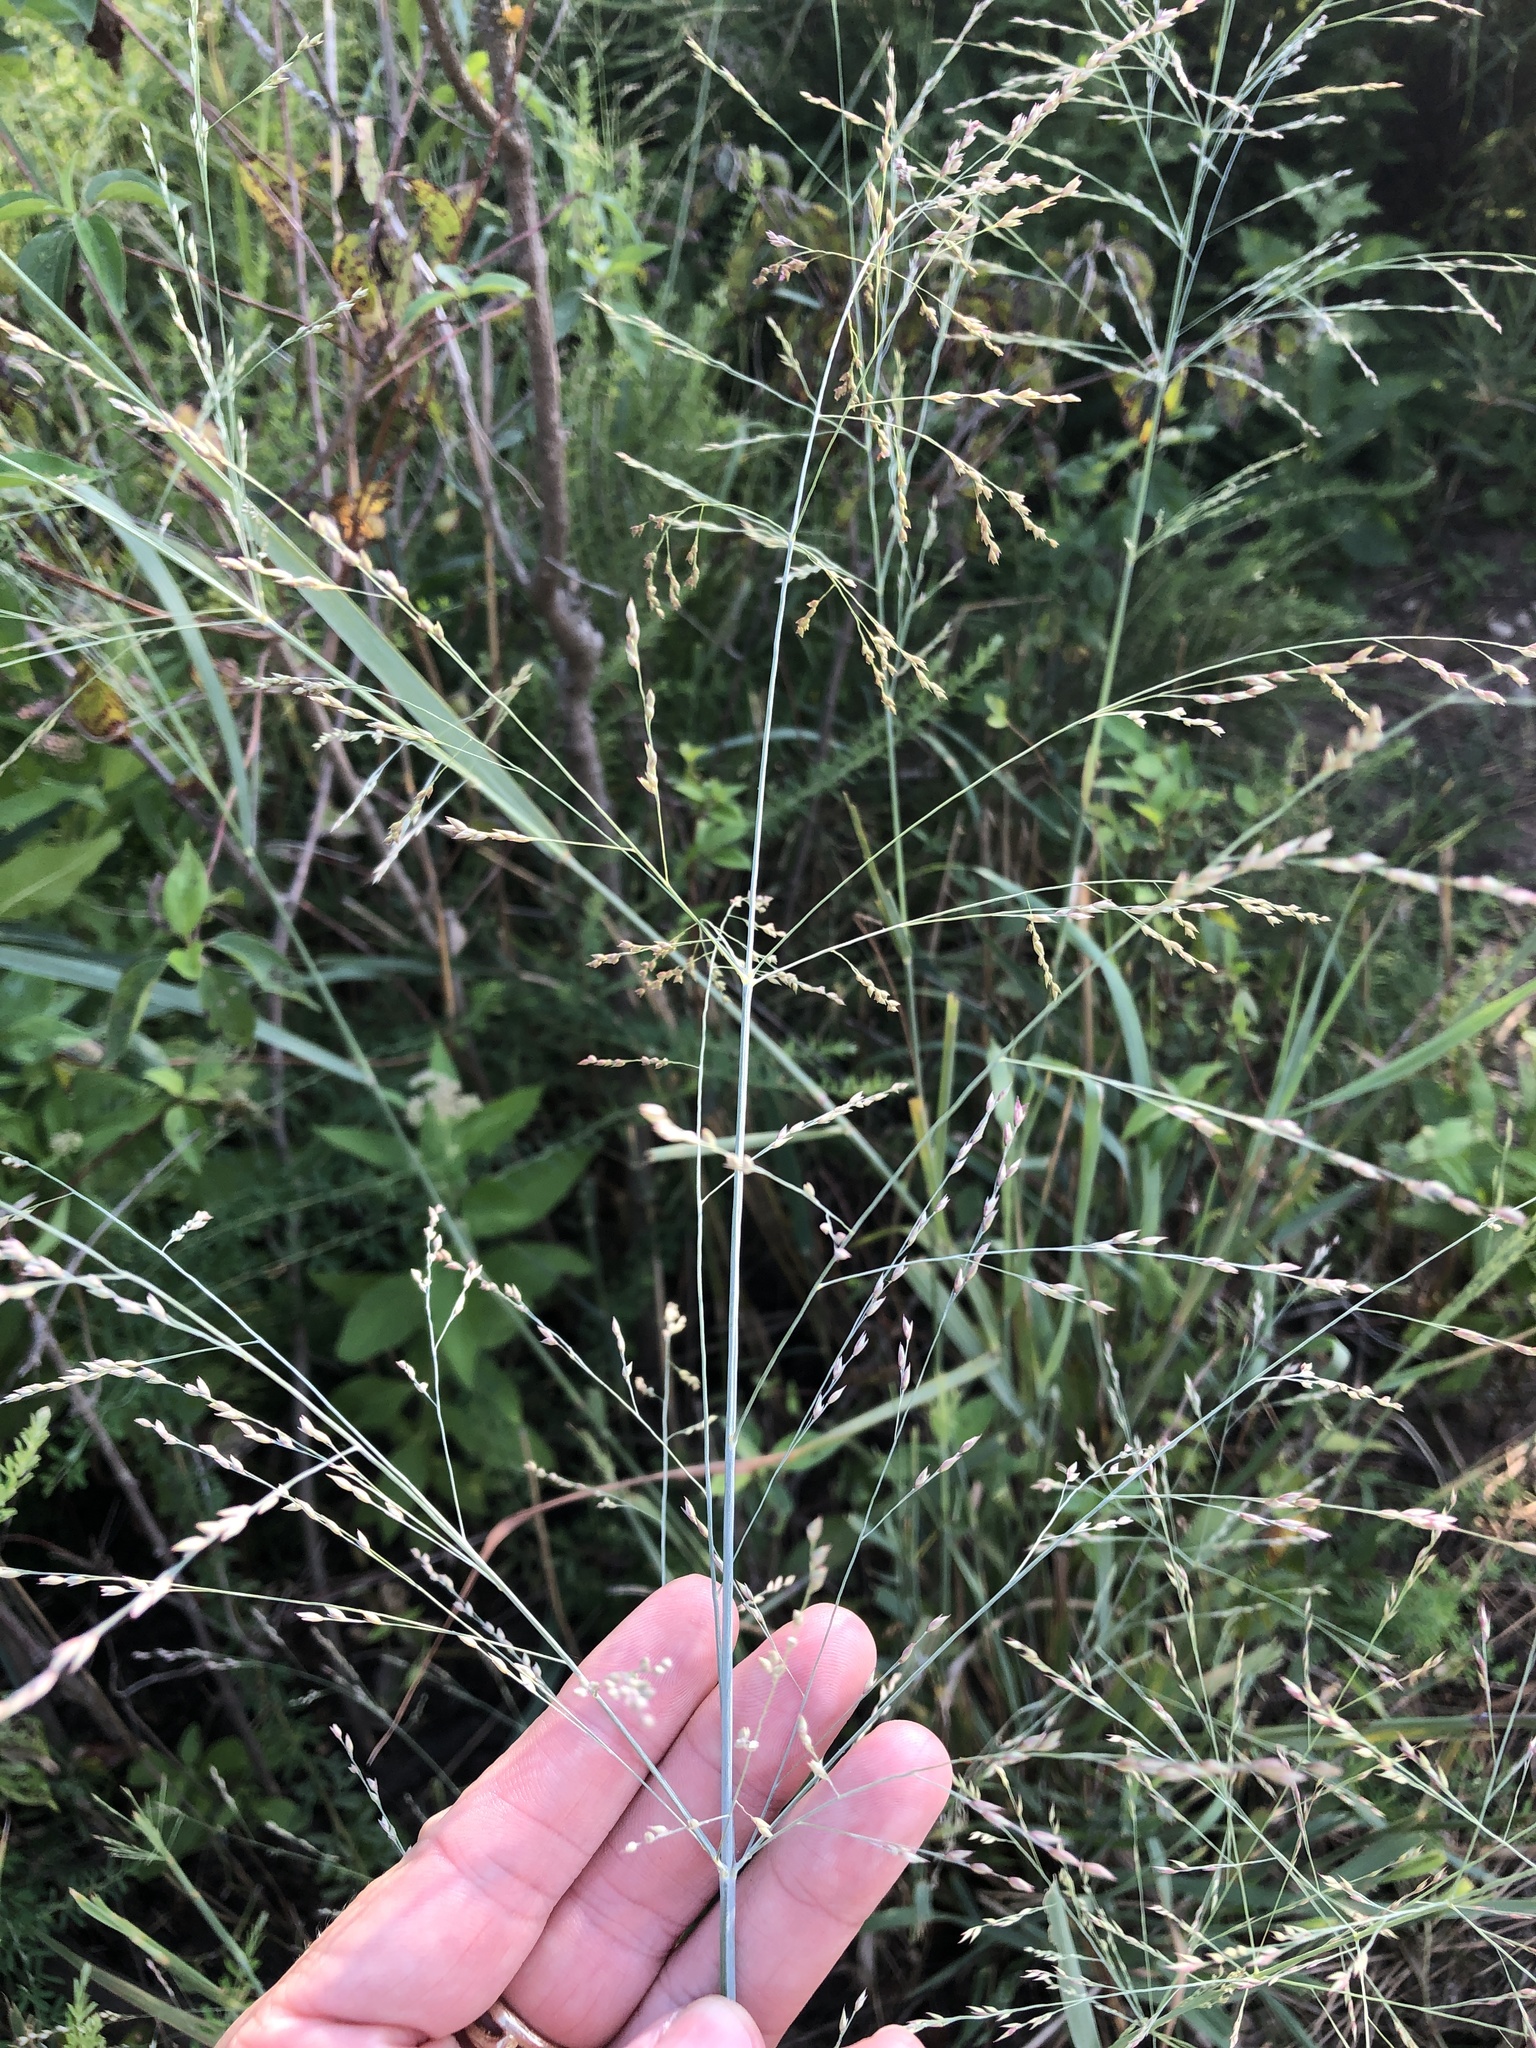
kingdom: Plantae
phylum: Tracheophyta
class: Liliopsida
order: Poales
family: Poaceae
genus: Panicum
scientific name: Panicum virgatum
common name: Switchgrass
